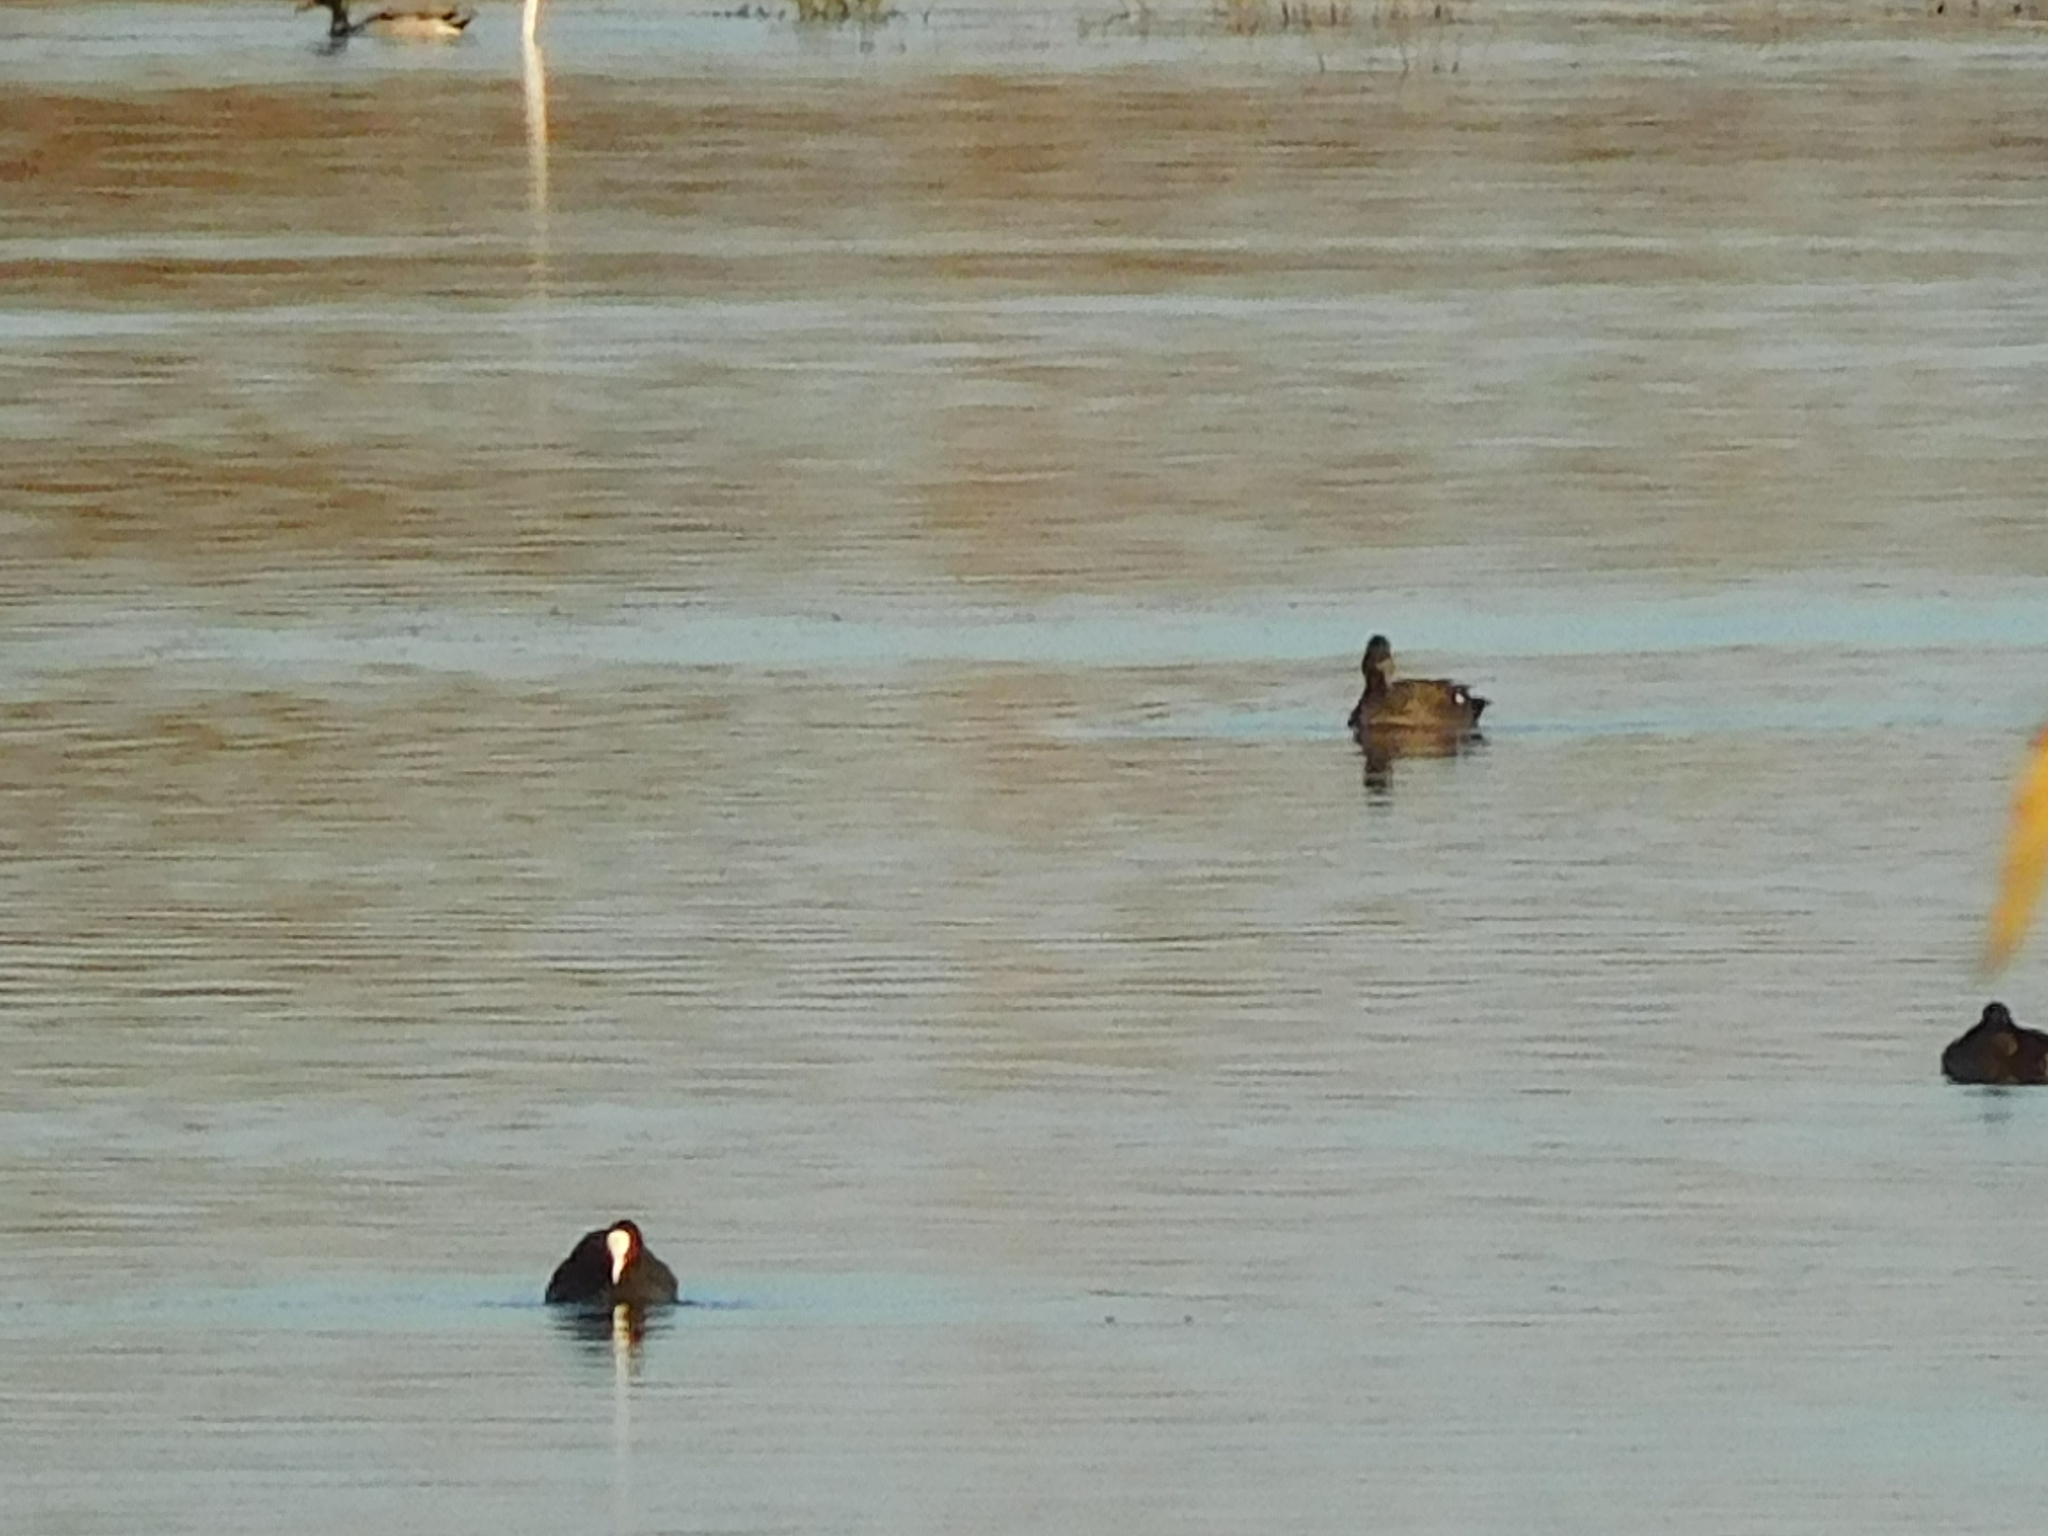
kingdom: Animalia
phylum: Chordata
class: Aves
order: Gruiformes
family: Rallidae
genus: Fulica
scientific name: Fulica atra
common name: Eurasian coot
